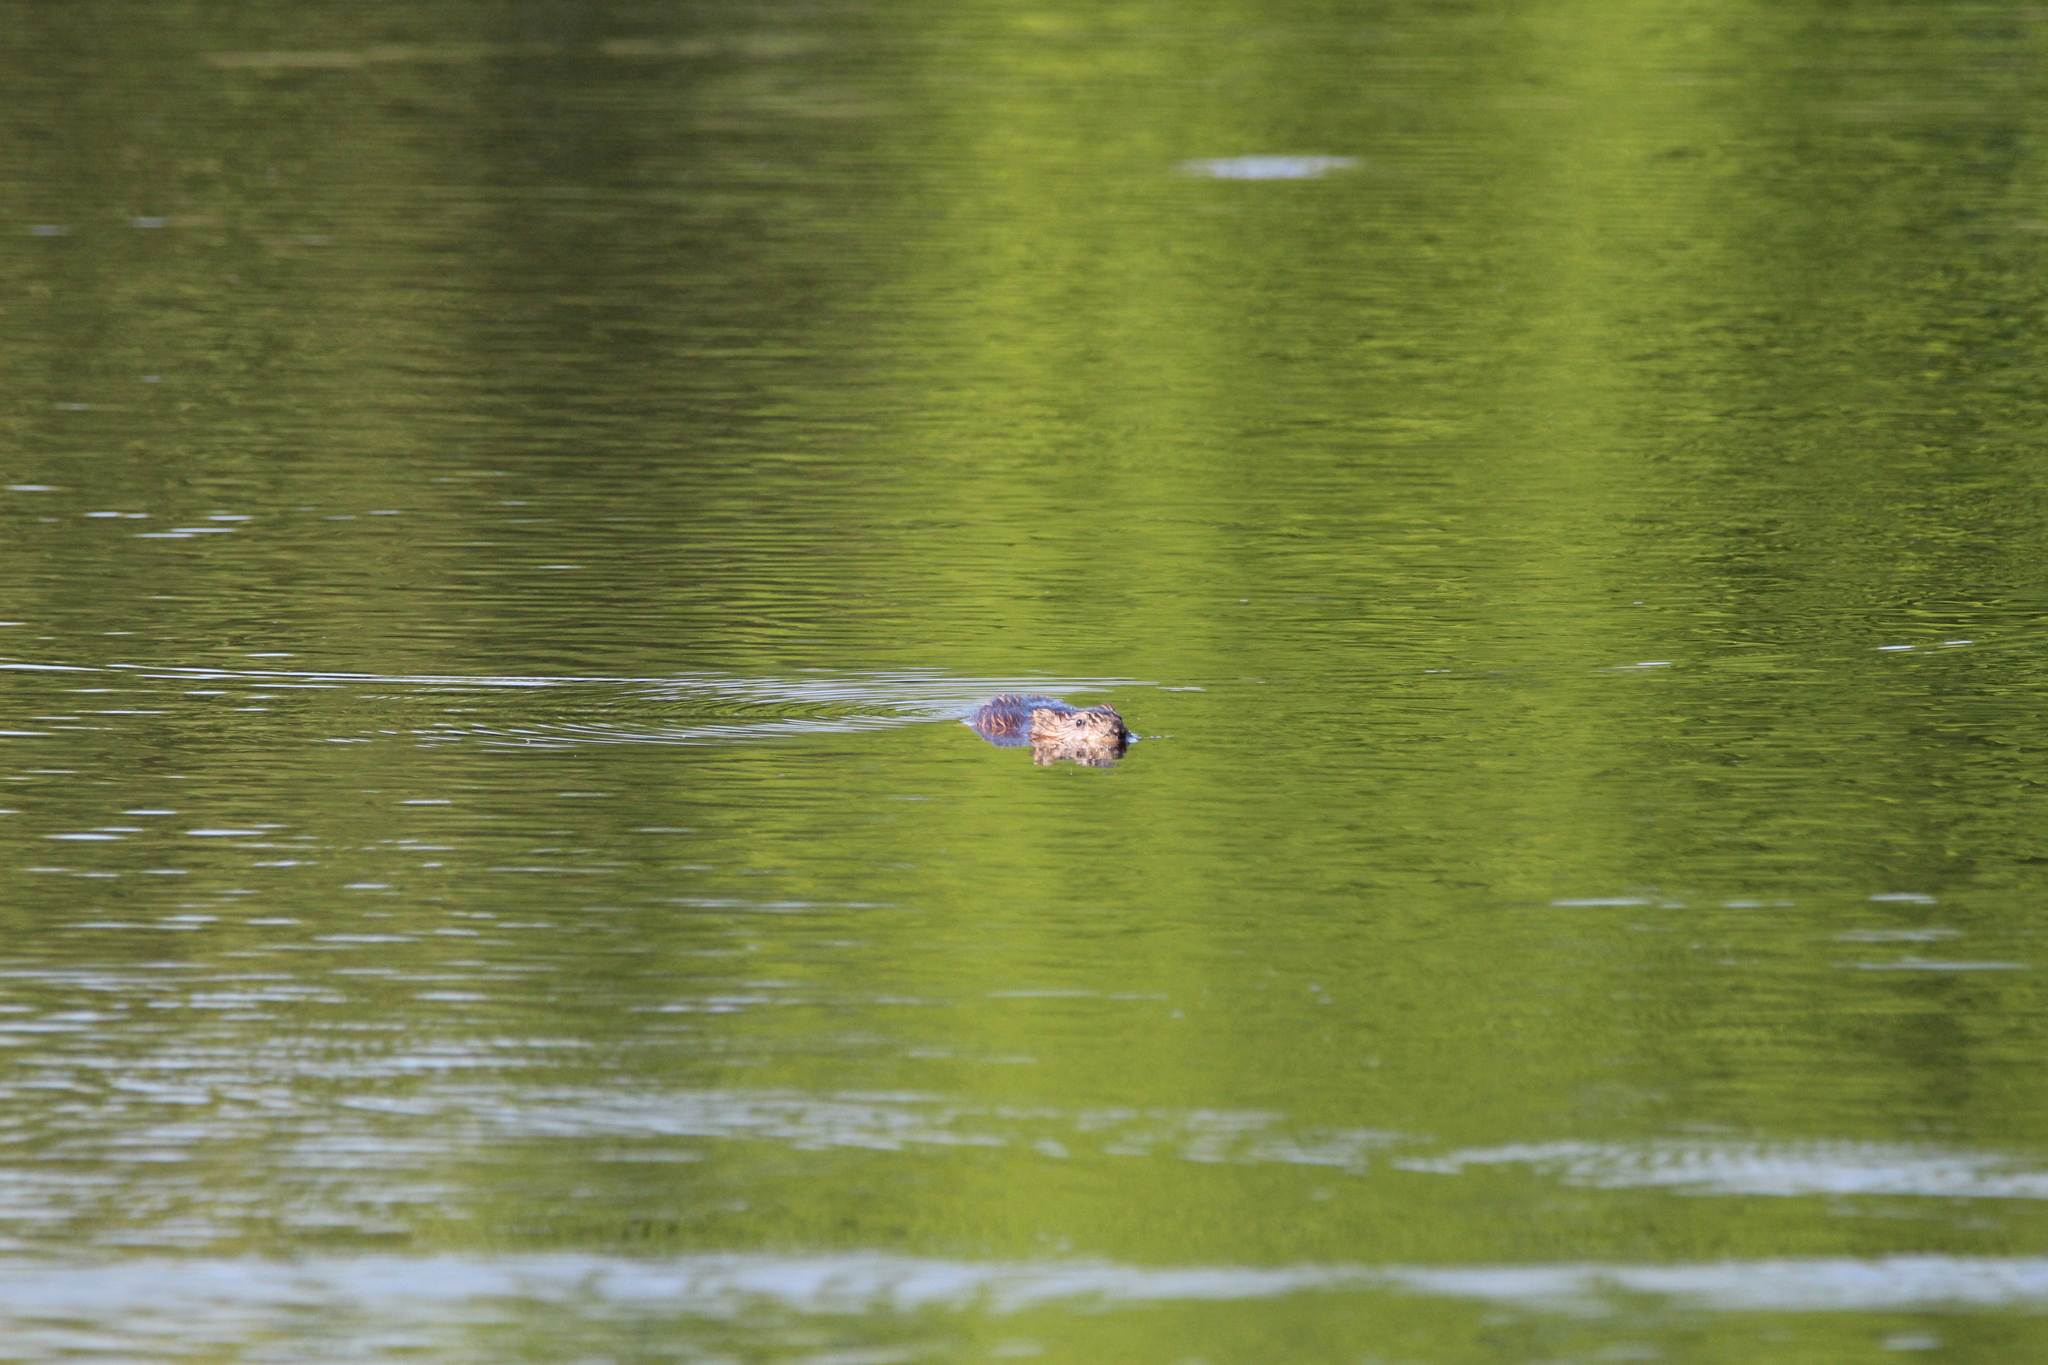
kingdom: Animalia
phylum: Chordata
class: Mammalia
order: Rodentia
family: Cricetidae
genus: Ondatra
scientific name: Ondatra zibethicus
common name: Muskrat
